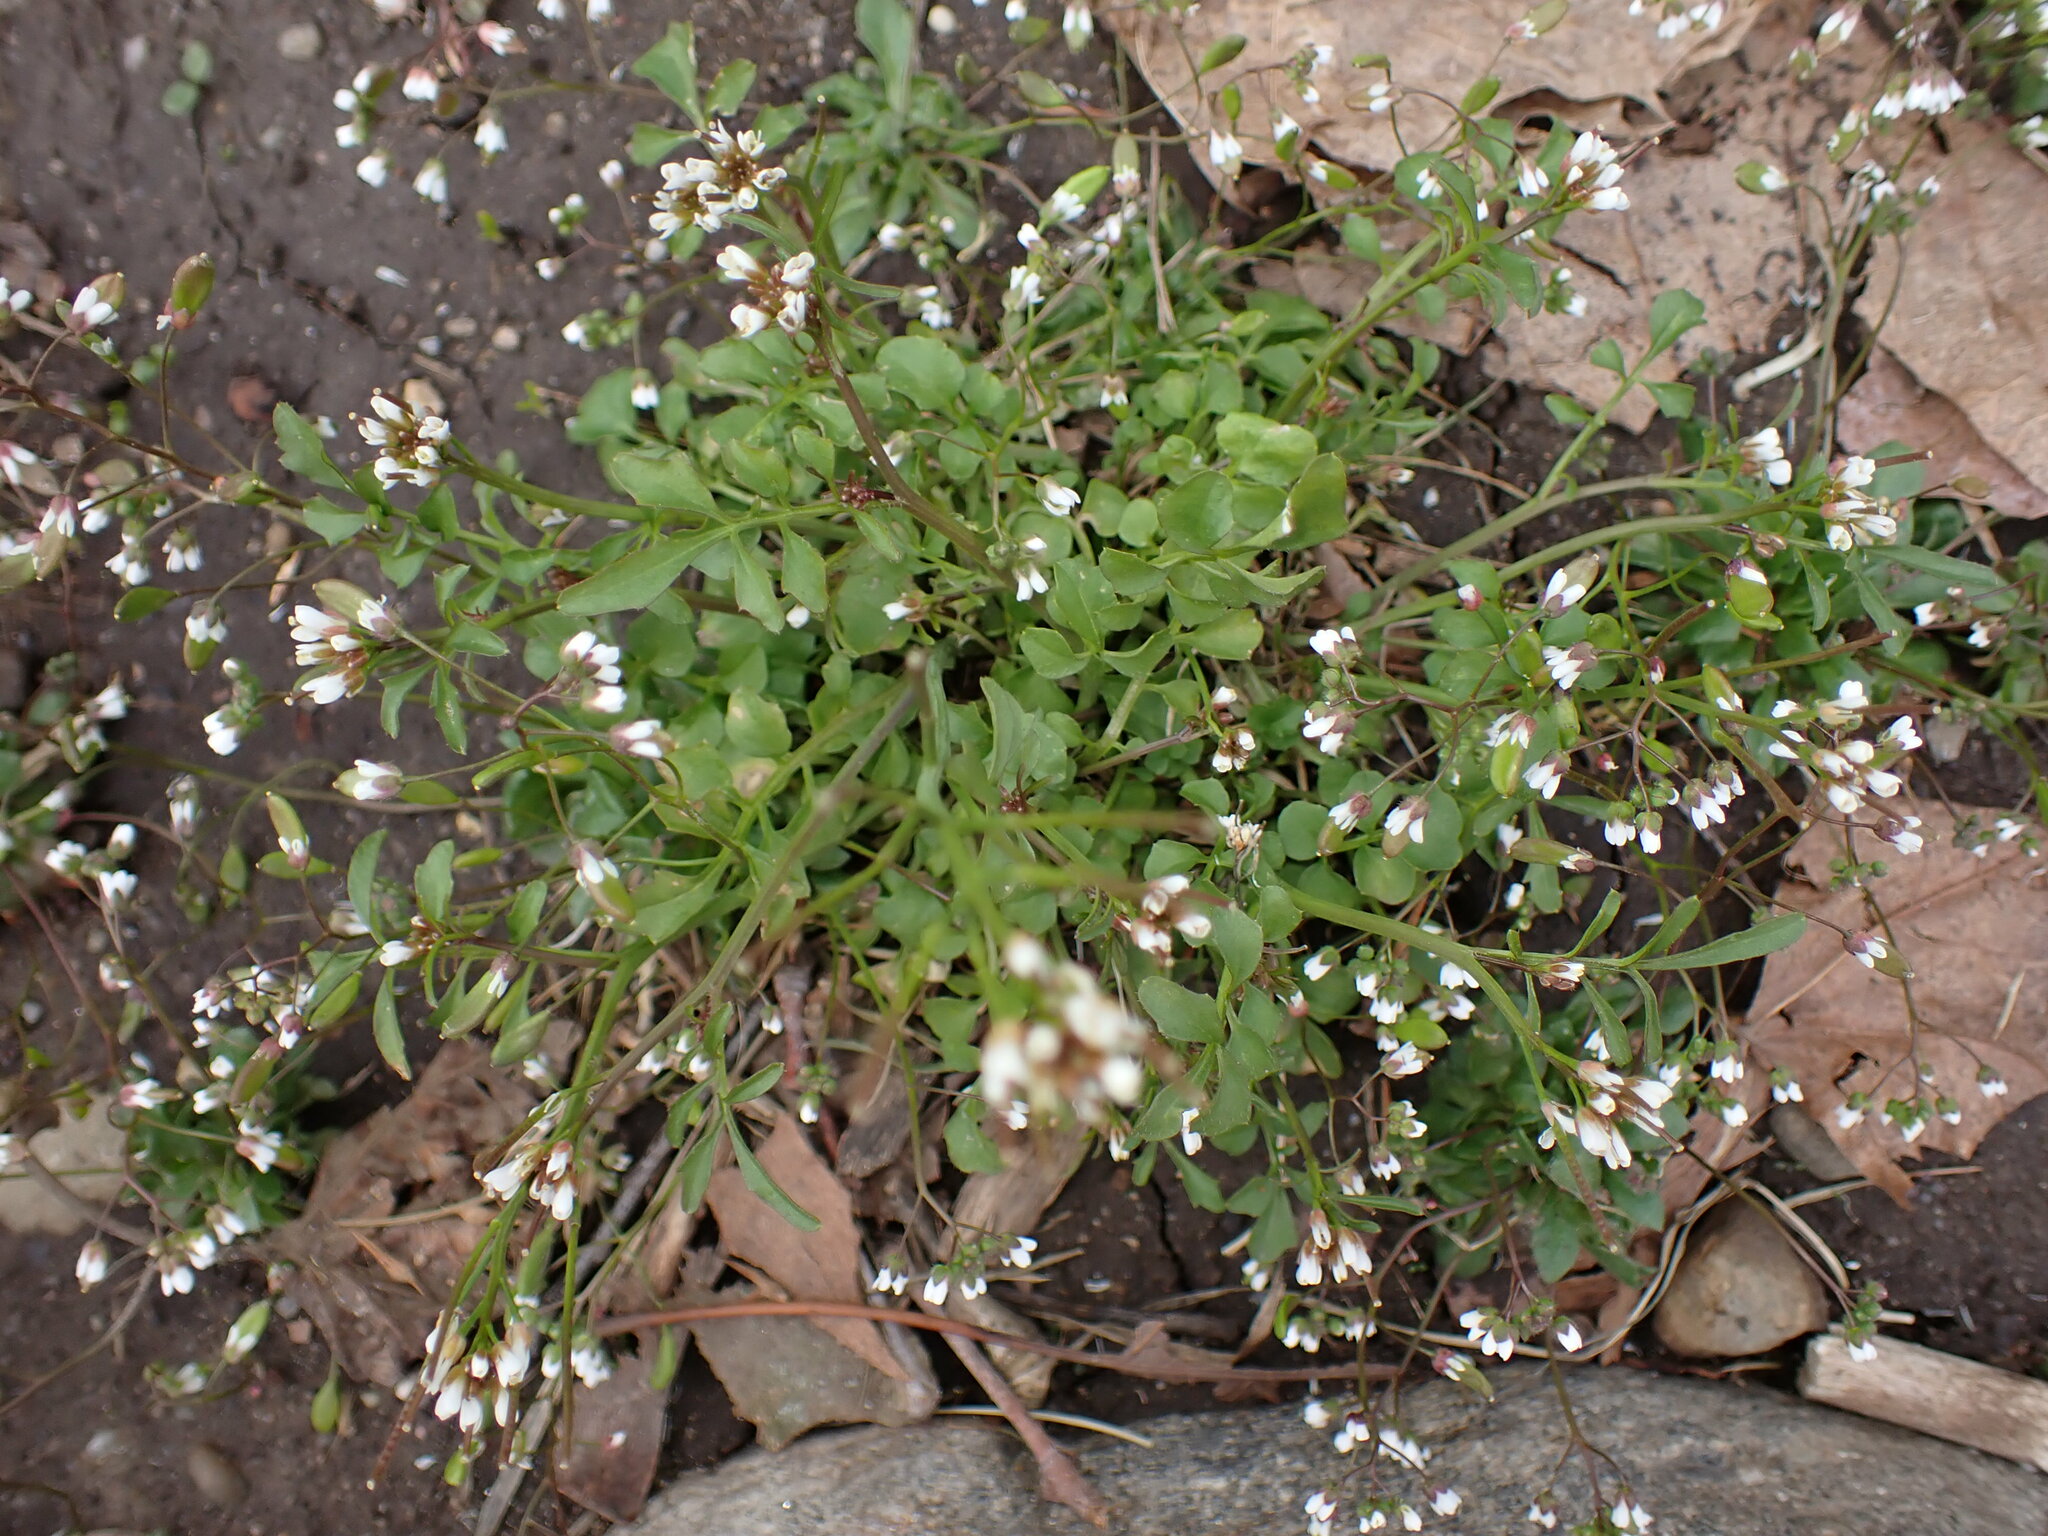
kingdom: Plantae
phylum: Tracheophyta
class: Magnoliopsida
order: Brassicales
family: Brassicaceae
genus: Cardamine
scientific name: Cardamine hirsuta
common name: Hairy bittercress
